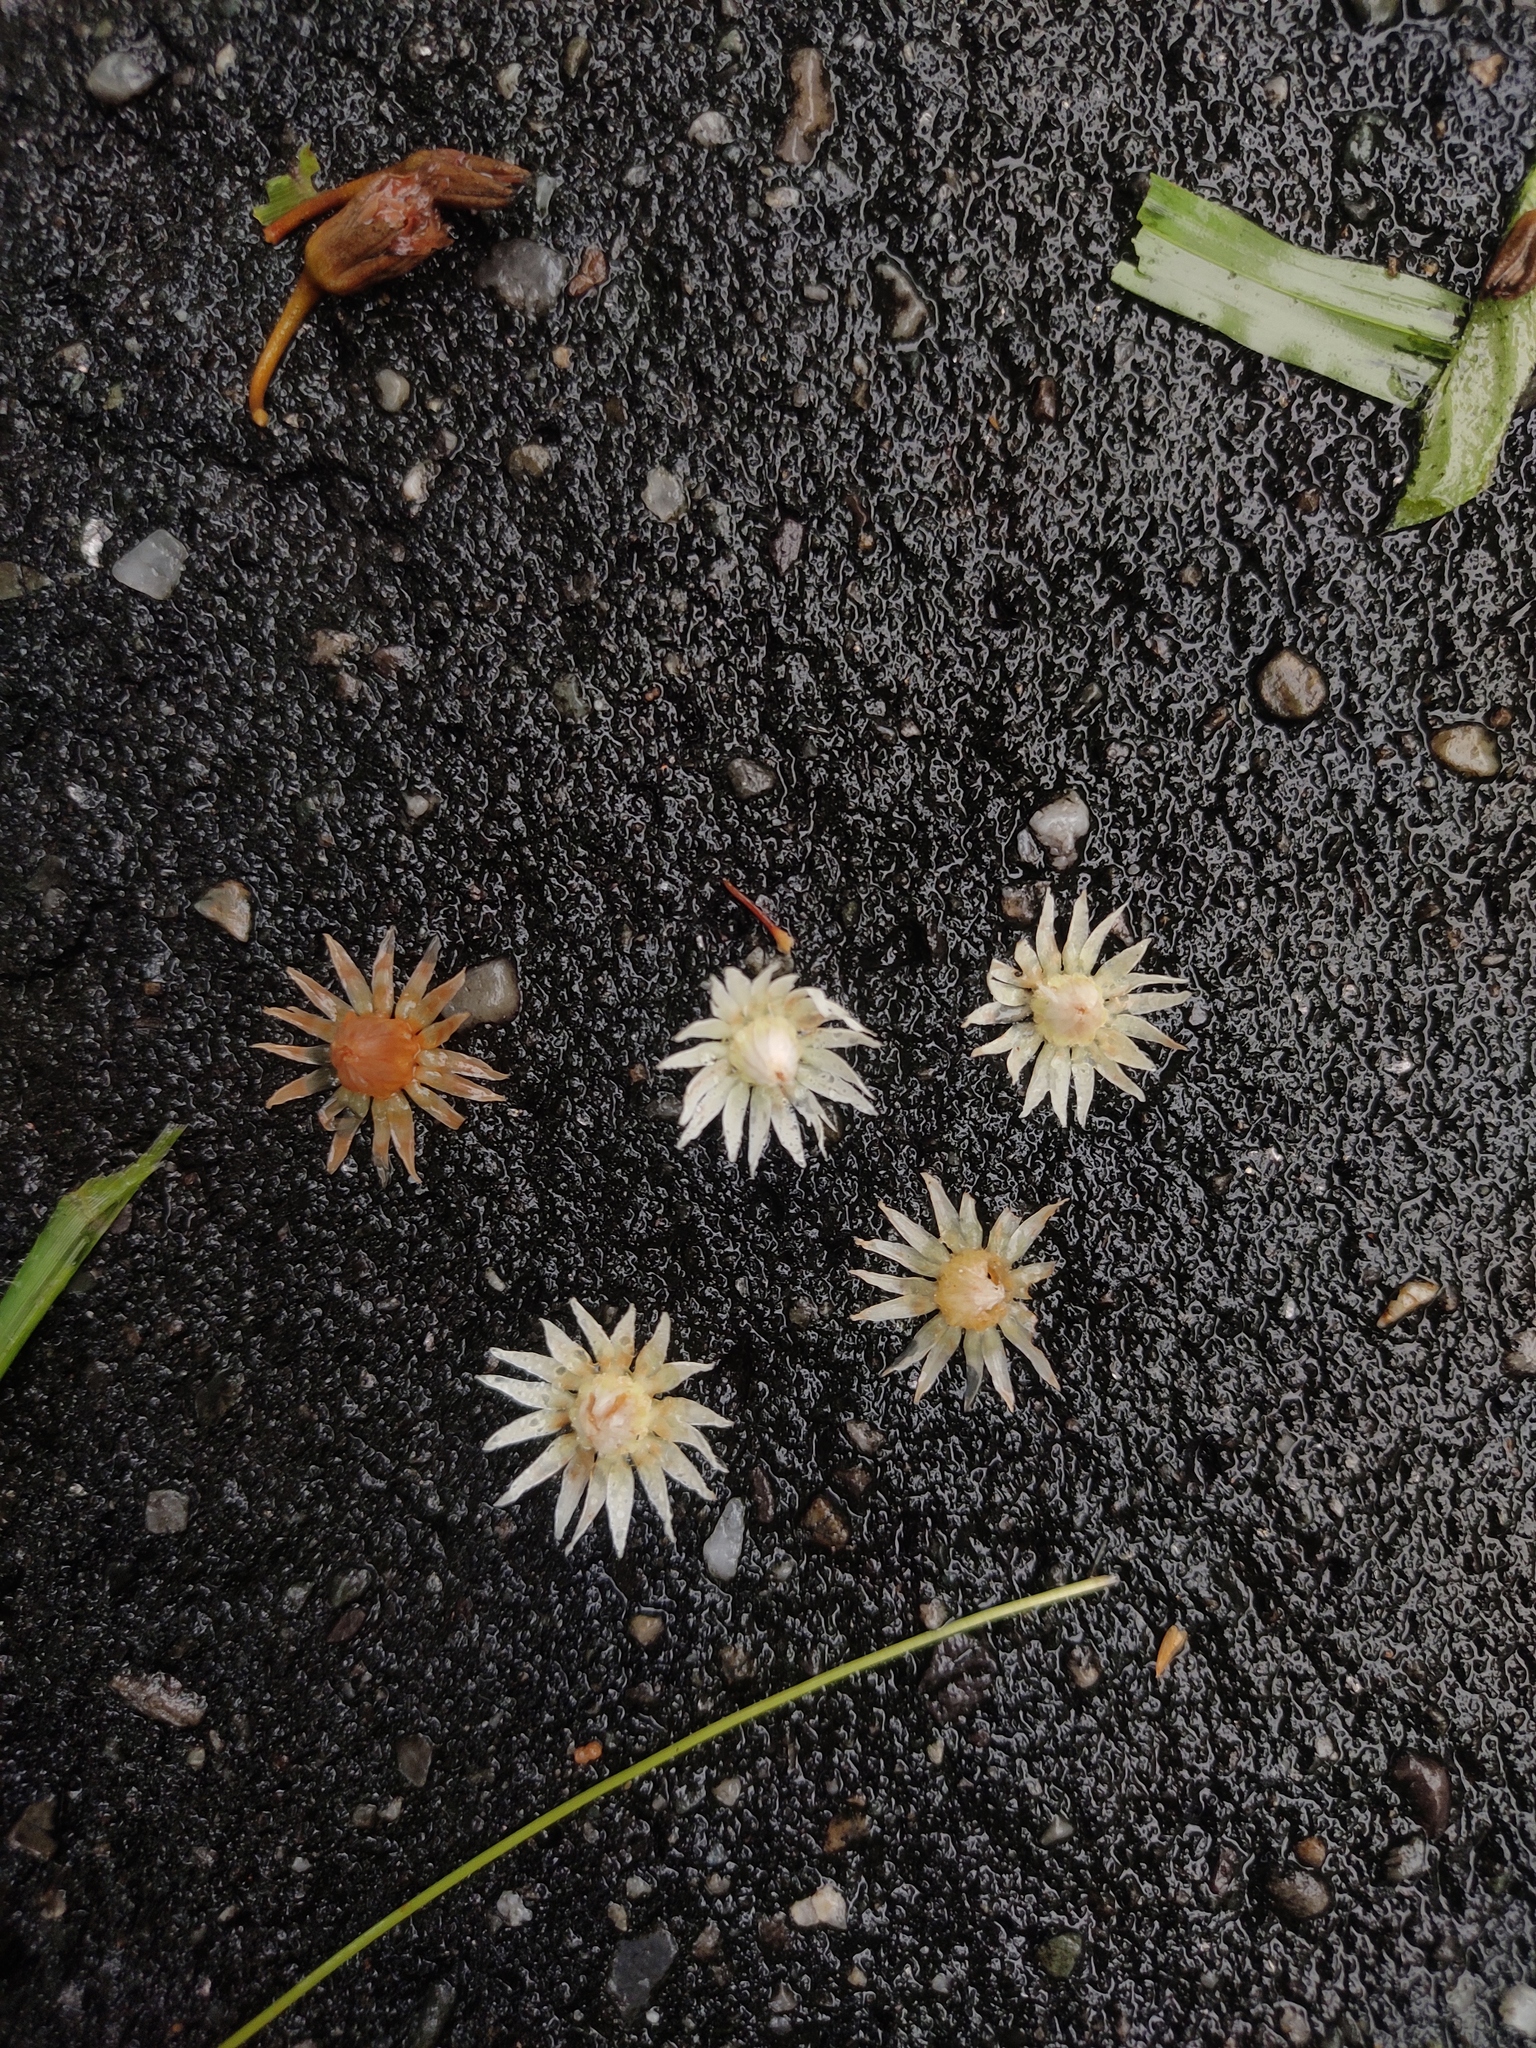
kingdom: Plantae
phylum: Tracheophyta
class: Magnoliopsida
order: Ericales
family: Sapotaceae
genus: Mimusops
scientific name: Mimusops elengi
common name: Spanish cherry
